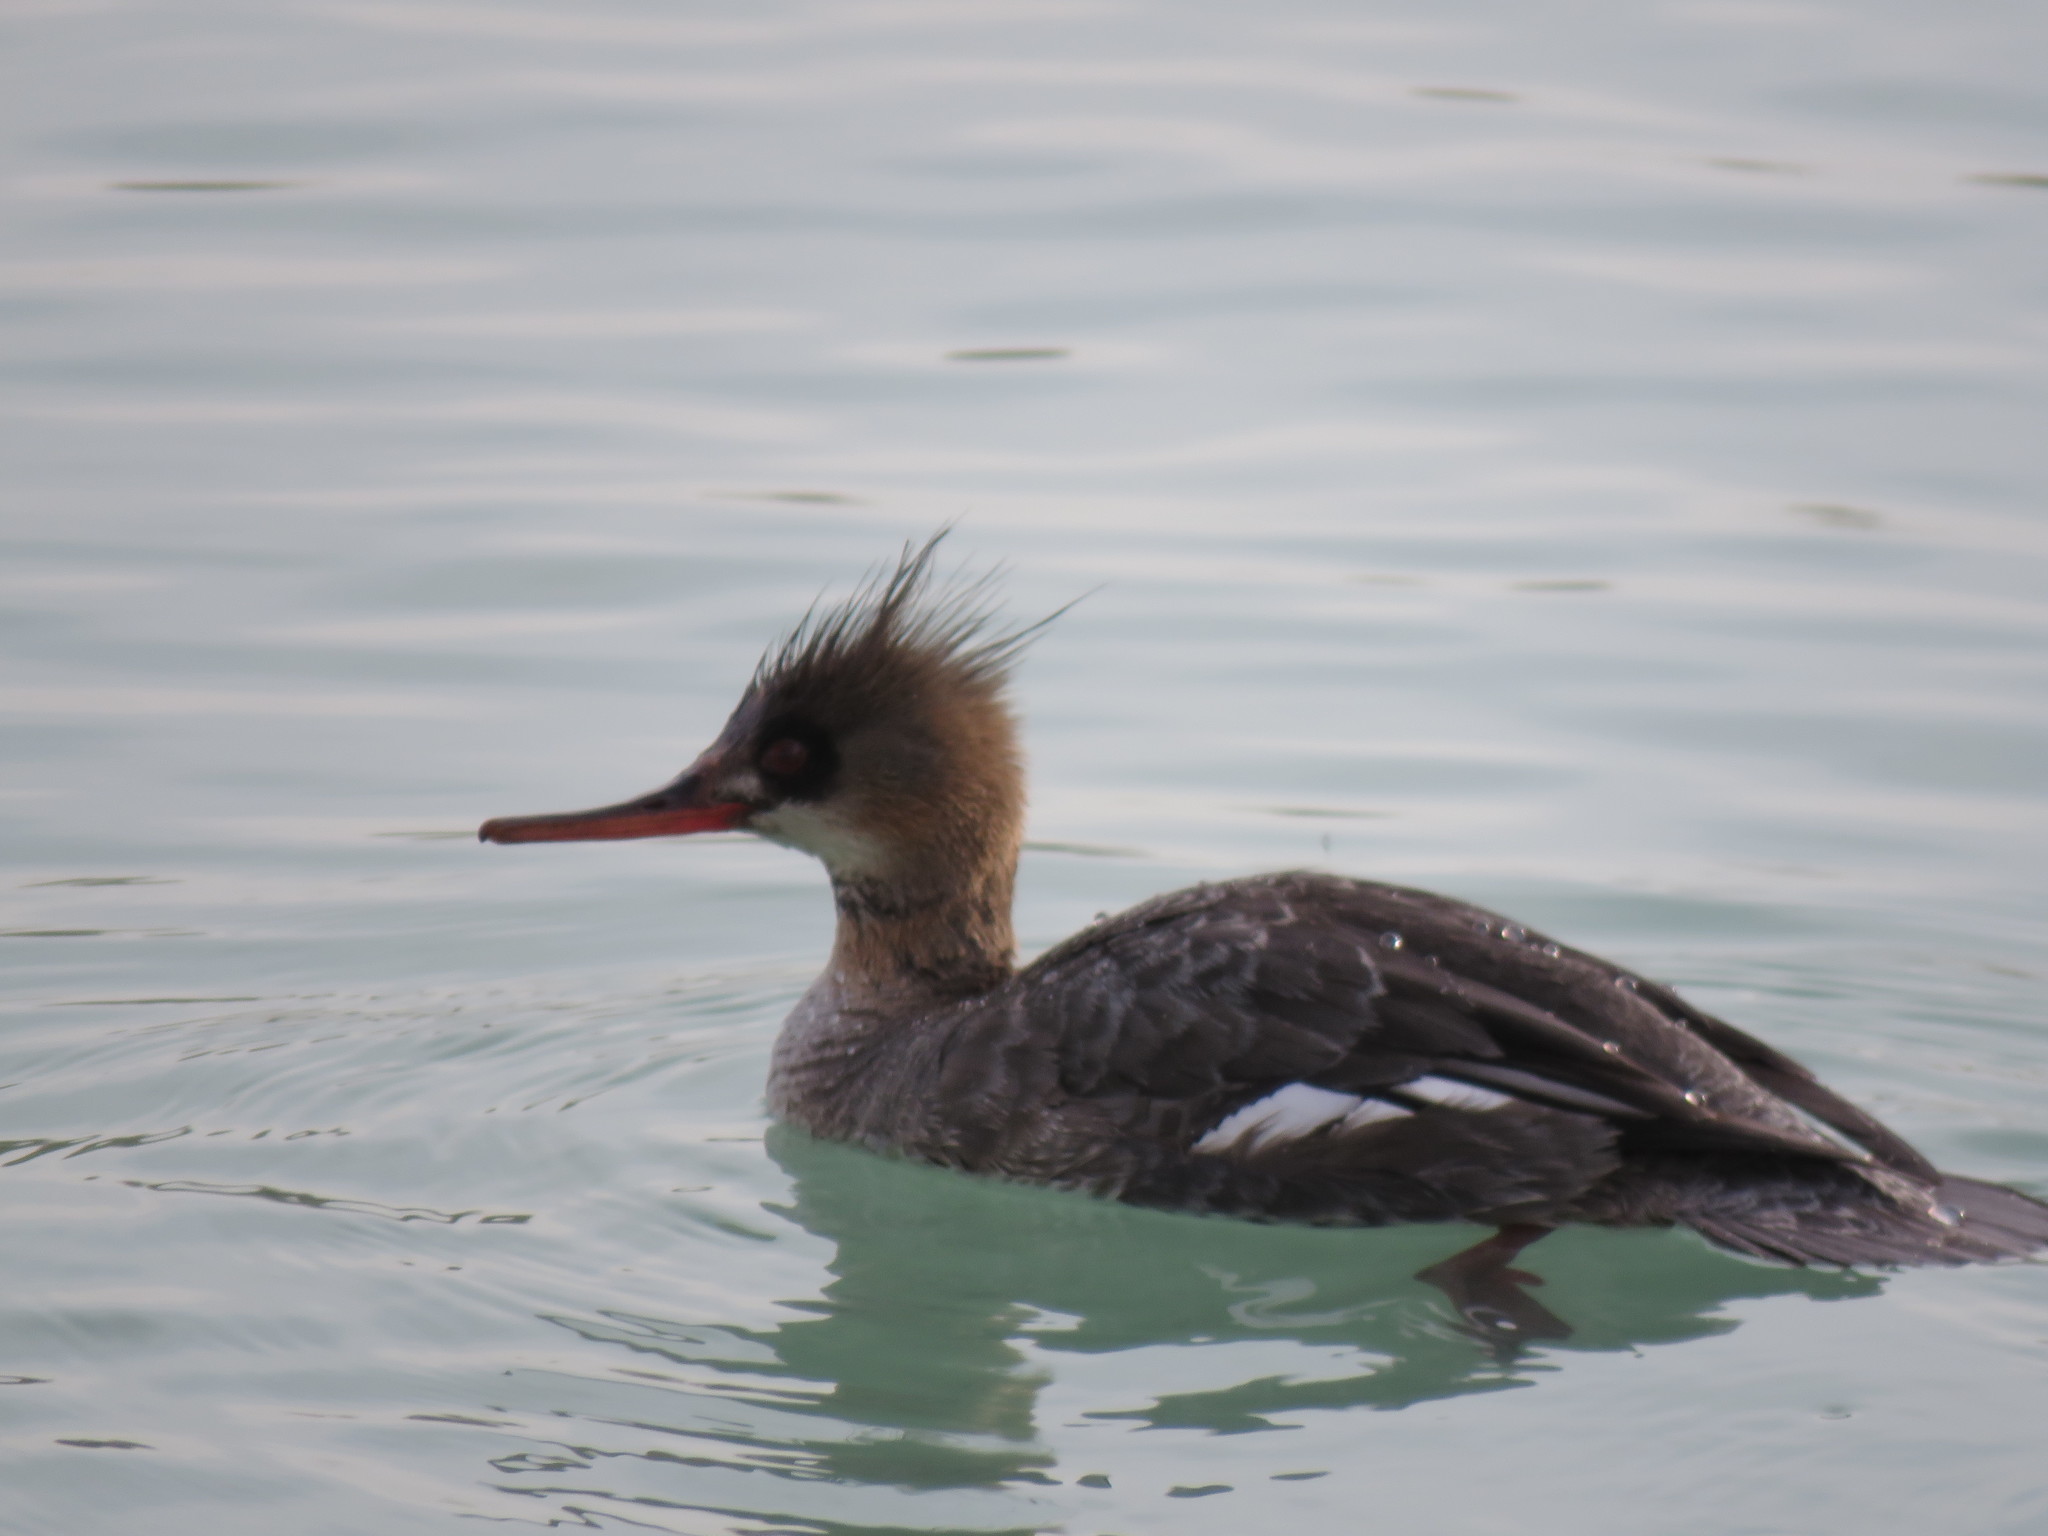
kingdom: Animalia
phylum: Chordata
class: Aves
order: Anseriformes
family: Anatidae
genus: Mergus
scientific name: Mergus serrator
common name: Red-breasted merganser
